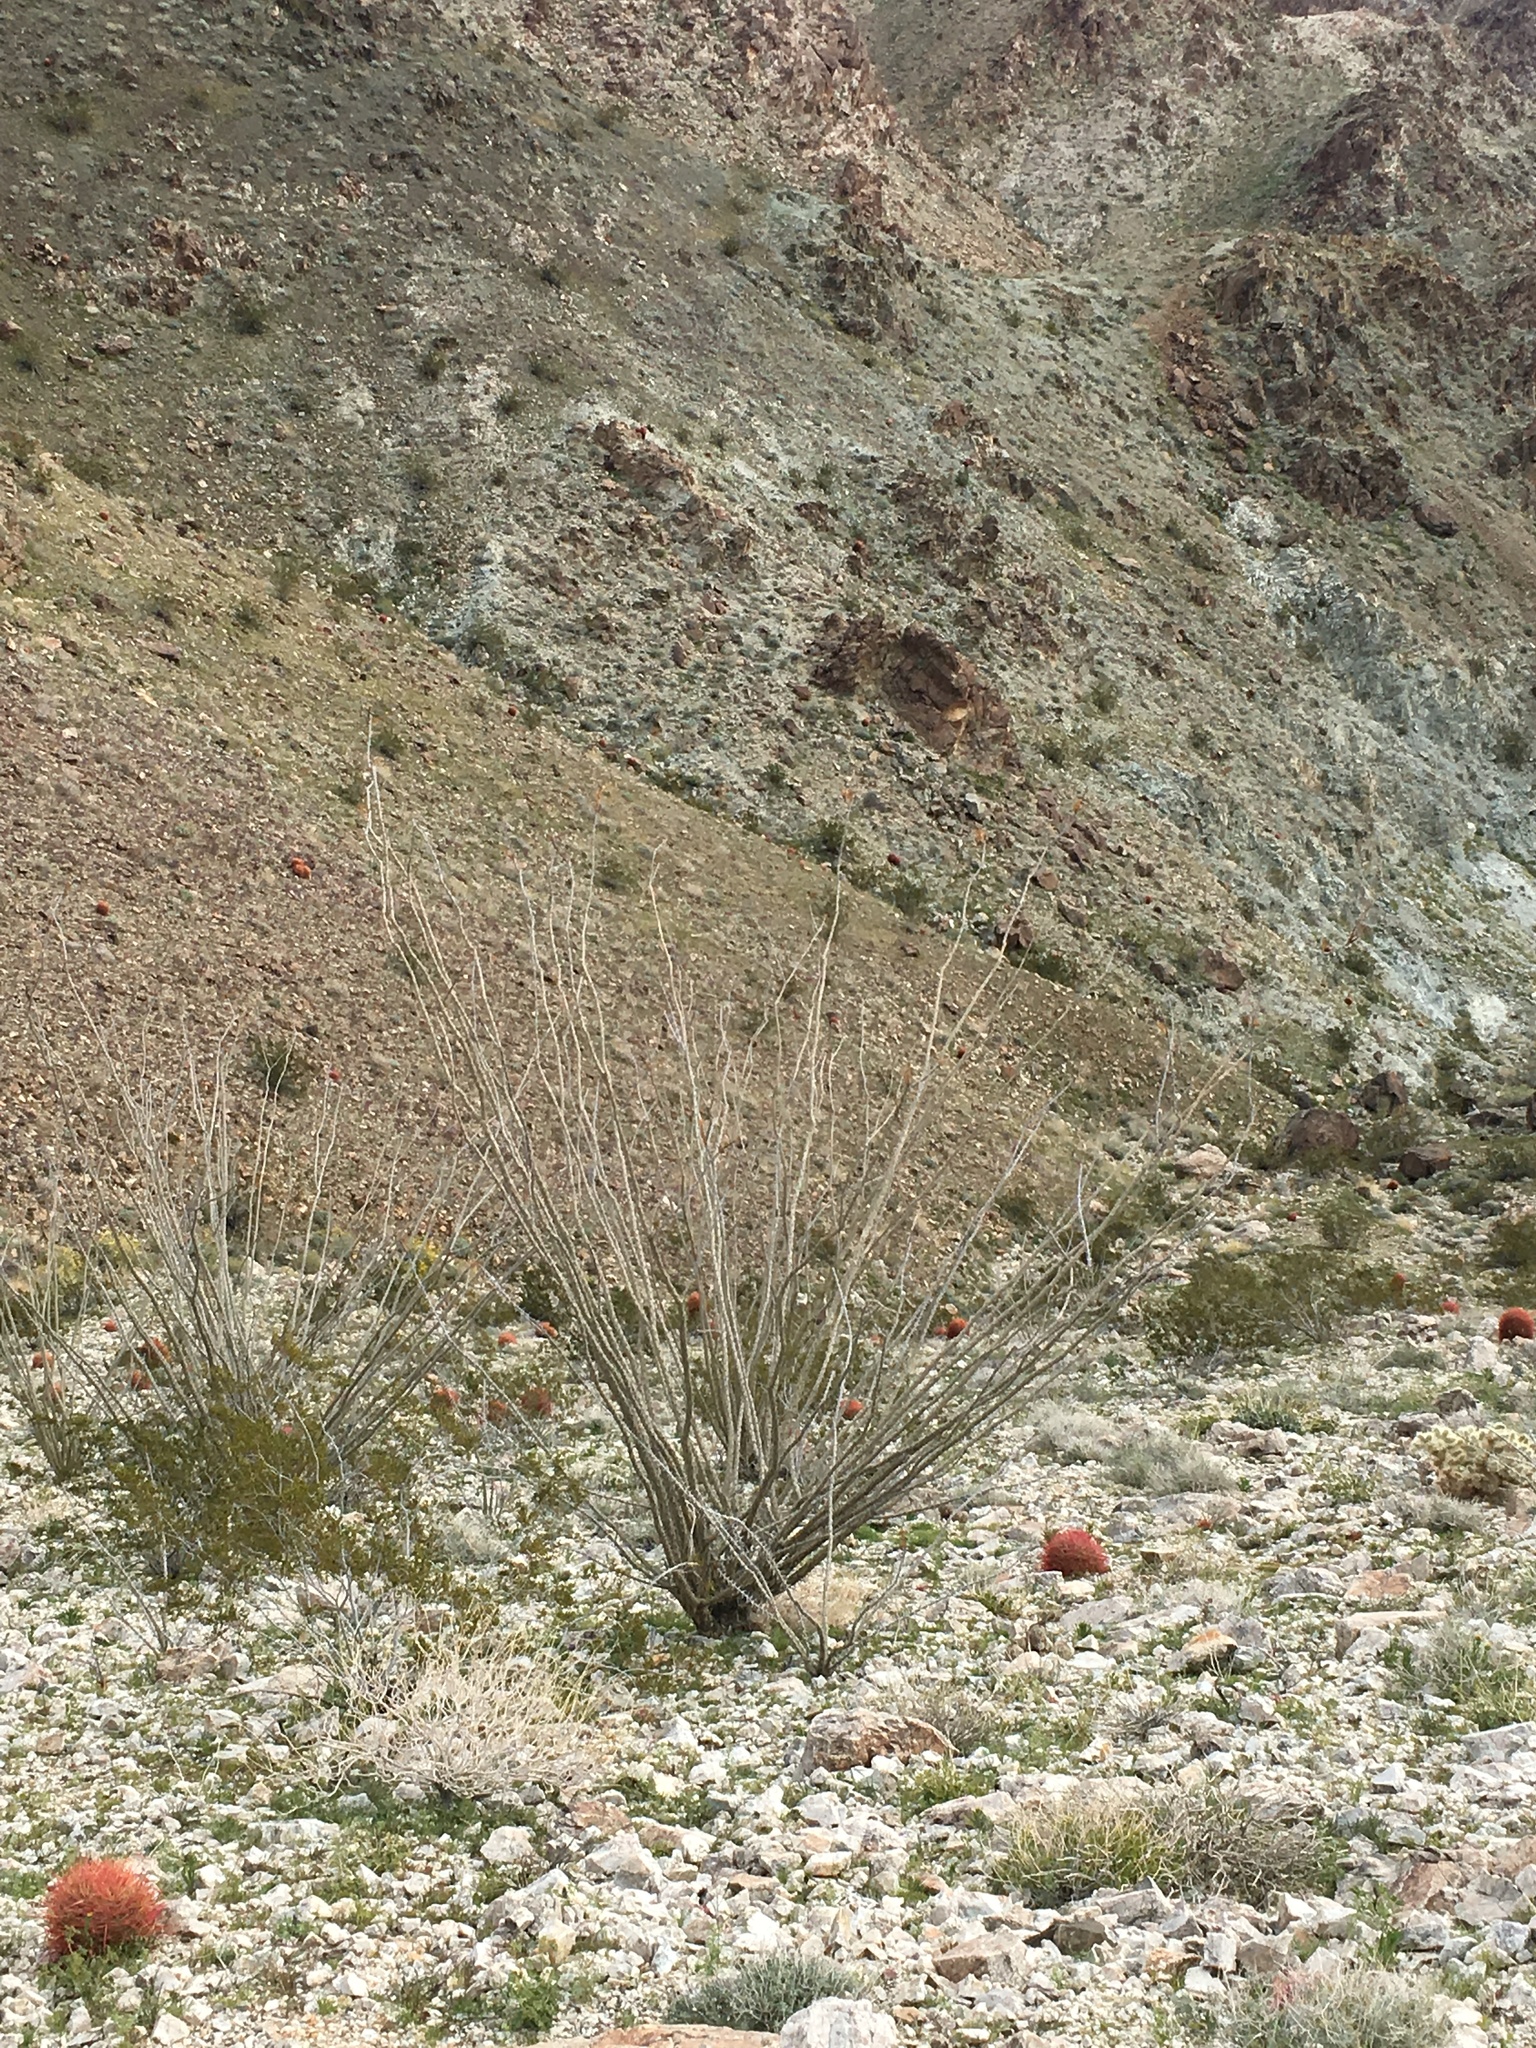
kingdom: Plantae
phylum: Tracheophyta
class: Magnoliopsida
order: Ericales
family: Fouquieriaceae
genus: Fouquieria
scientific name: Fouquieria splendens
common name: Vine-cactus
